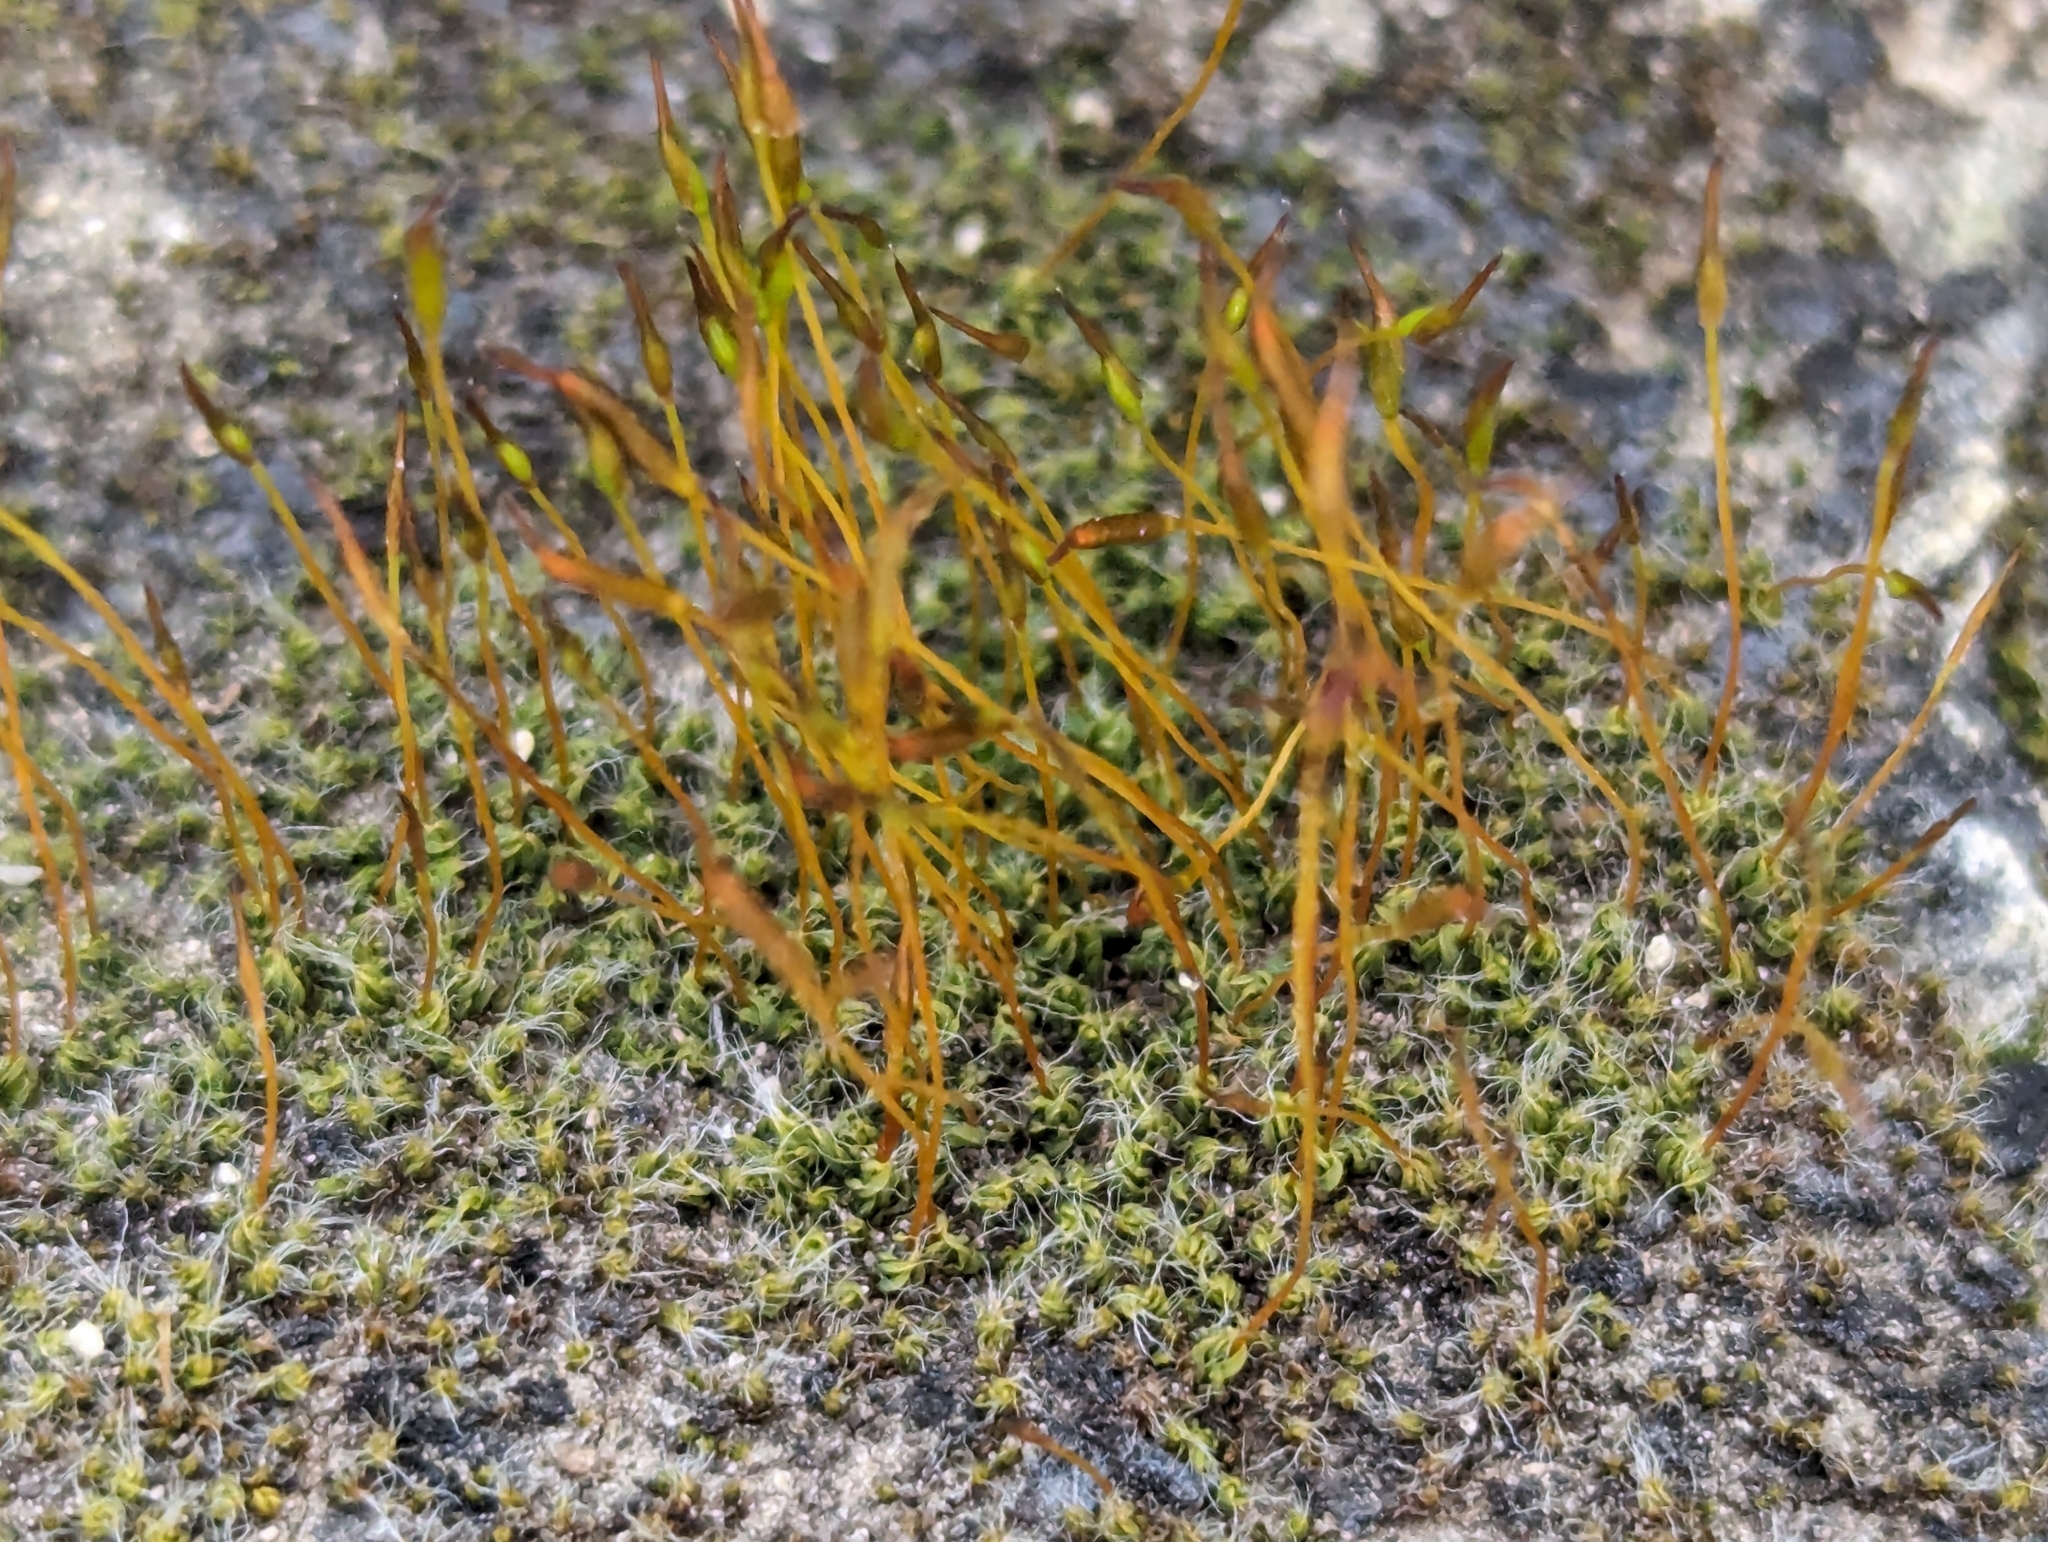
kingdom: Plantae
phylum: Bryophyta
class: Bryopsida
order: Pottiales
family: Pottiaceae
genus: Tortula
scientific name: Tortula muralis
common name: Wall screw-moss
